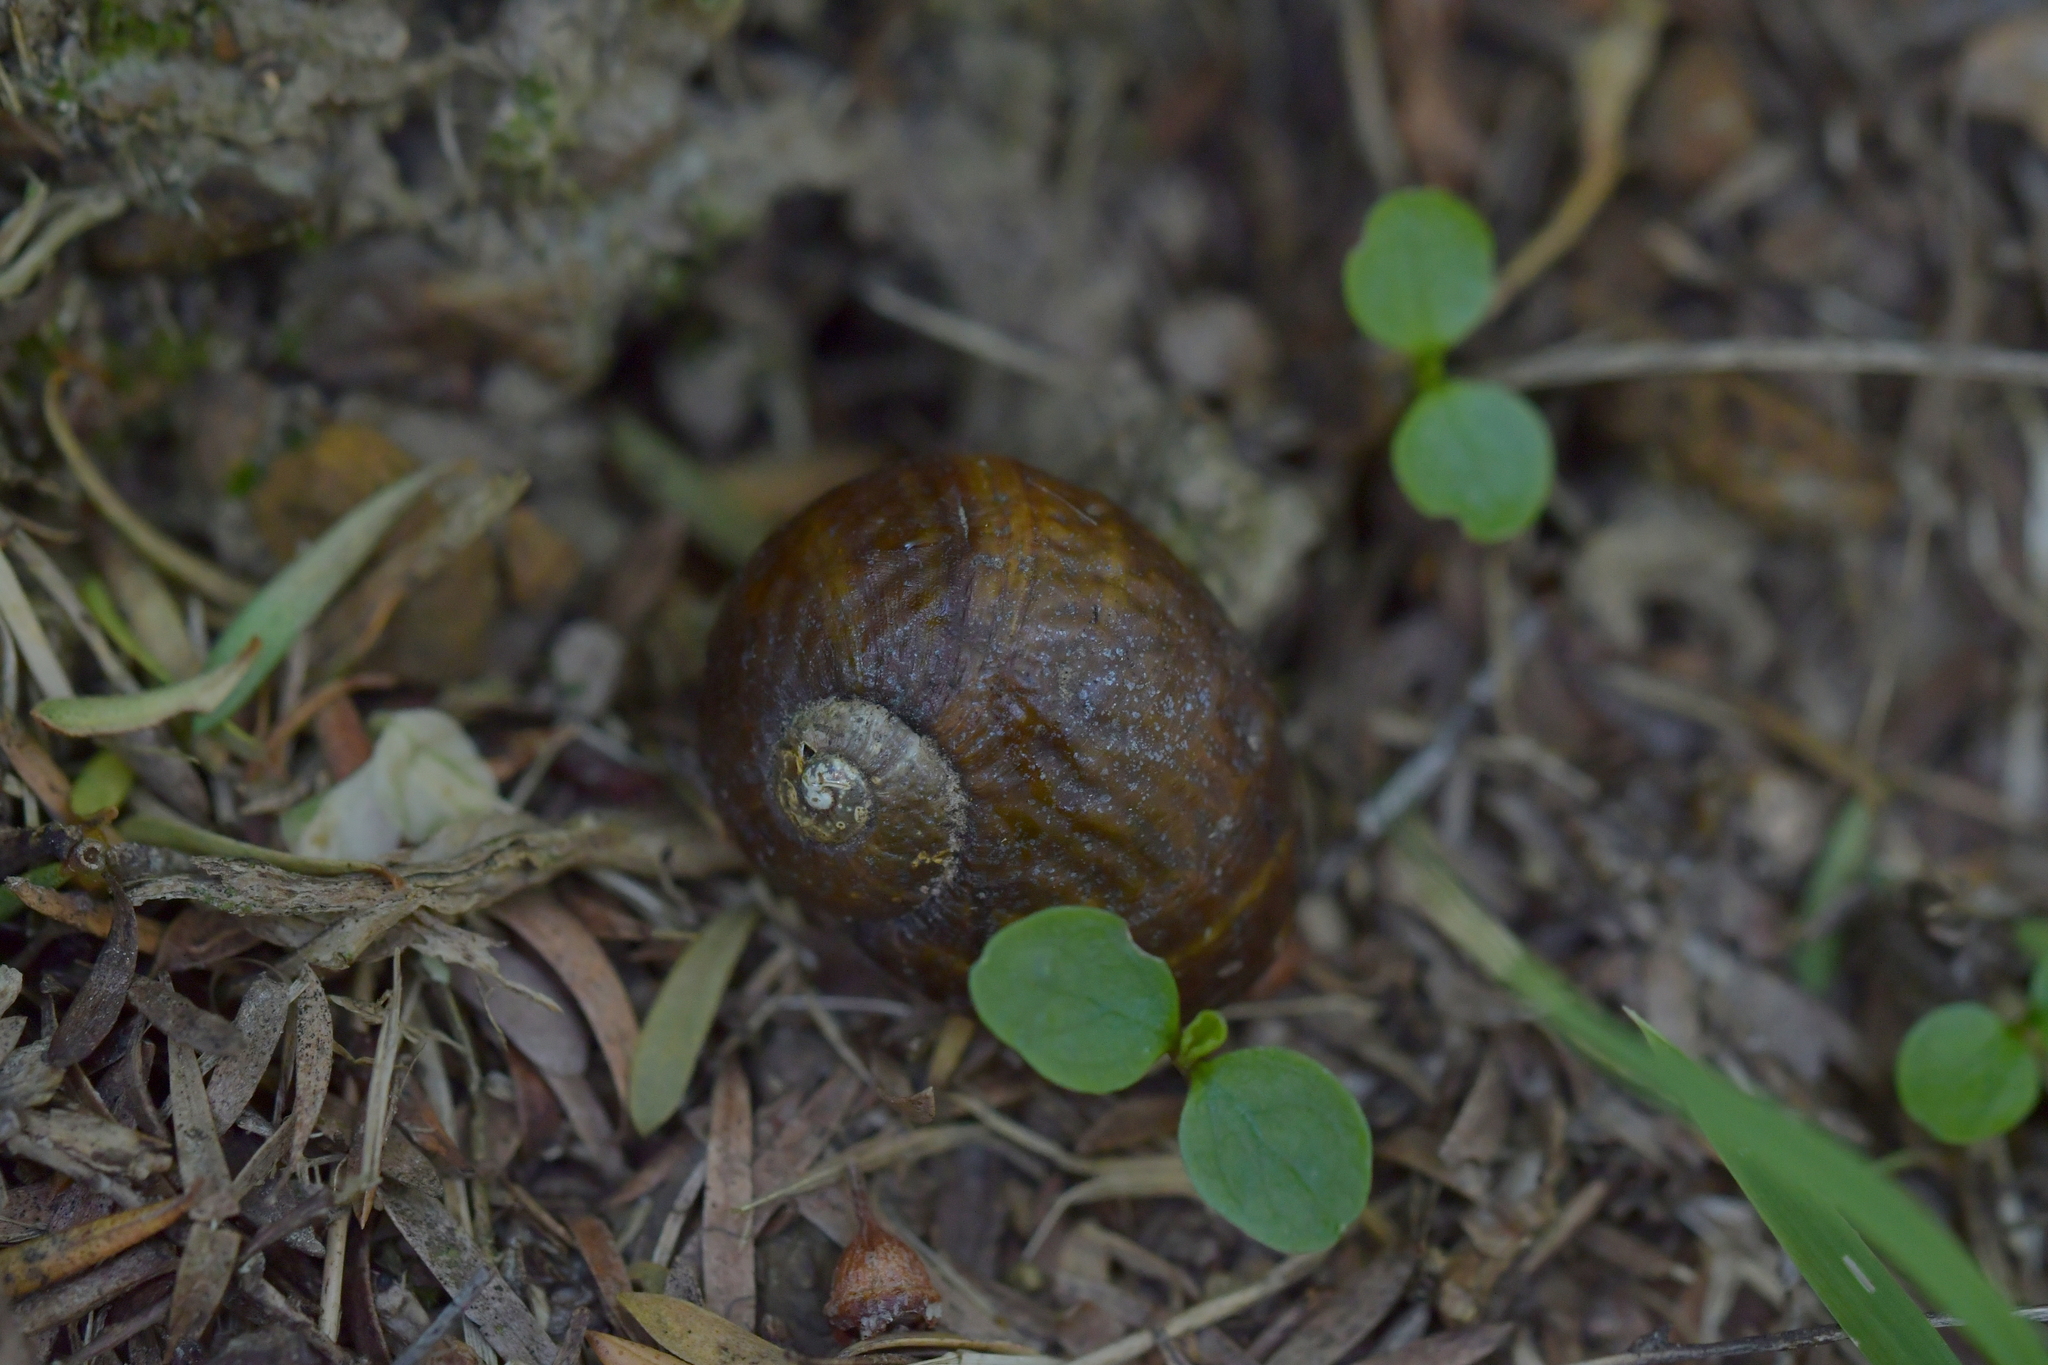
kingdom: Animalia
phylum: Mollusca
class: Gastropoda
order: Stylommatophora
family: Rhytididae
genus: Wainuia
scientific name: Wainuia urnula
